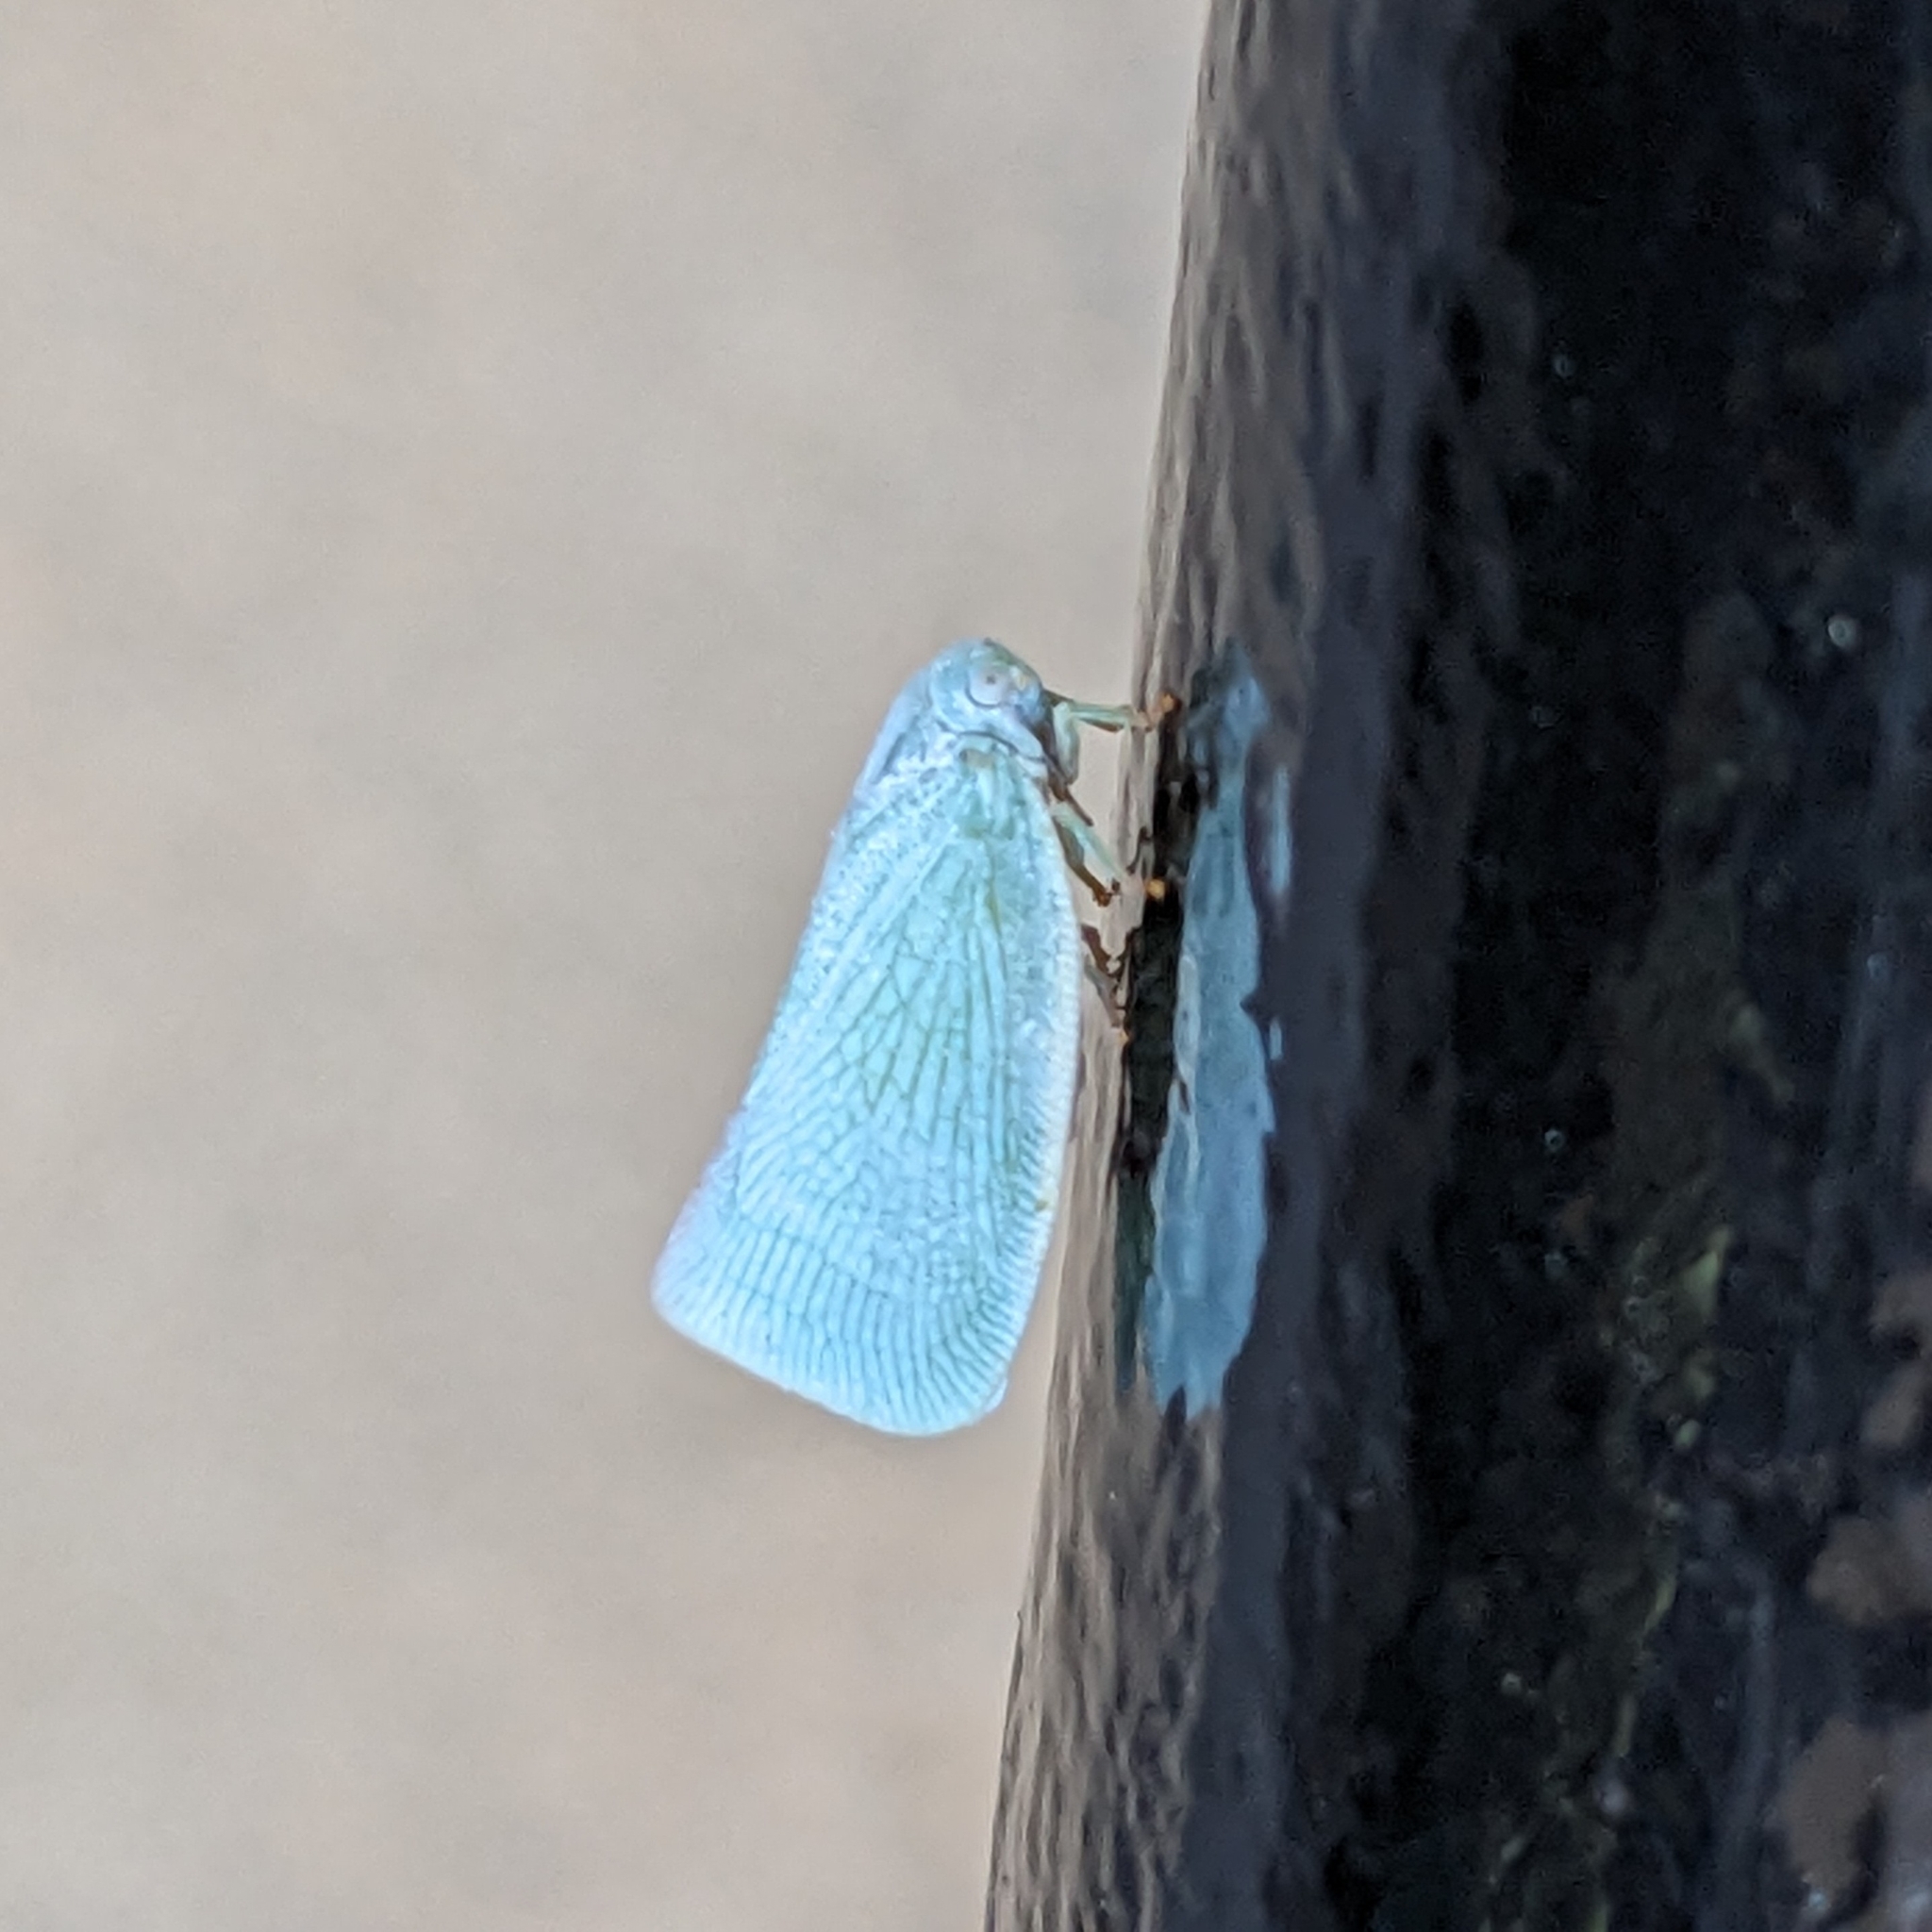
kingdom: Animalia
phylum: Arthropoda
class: Insecta
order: Hemiptera
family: Flatidae
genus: Flatormenis
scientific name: Flatormenis proxima
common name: Northern flatid planthopper
